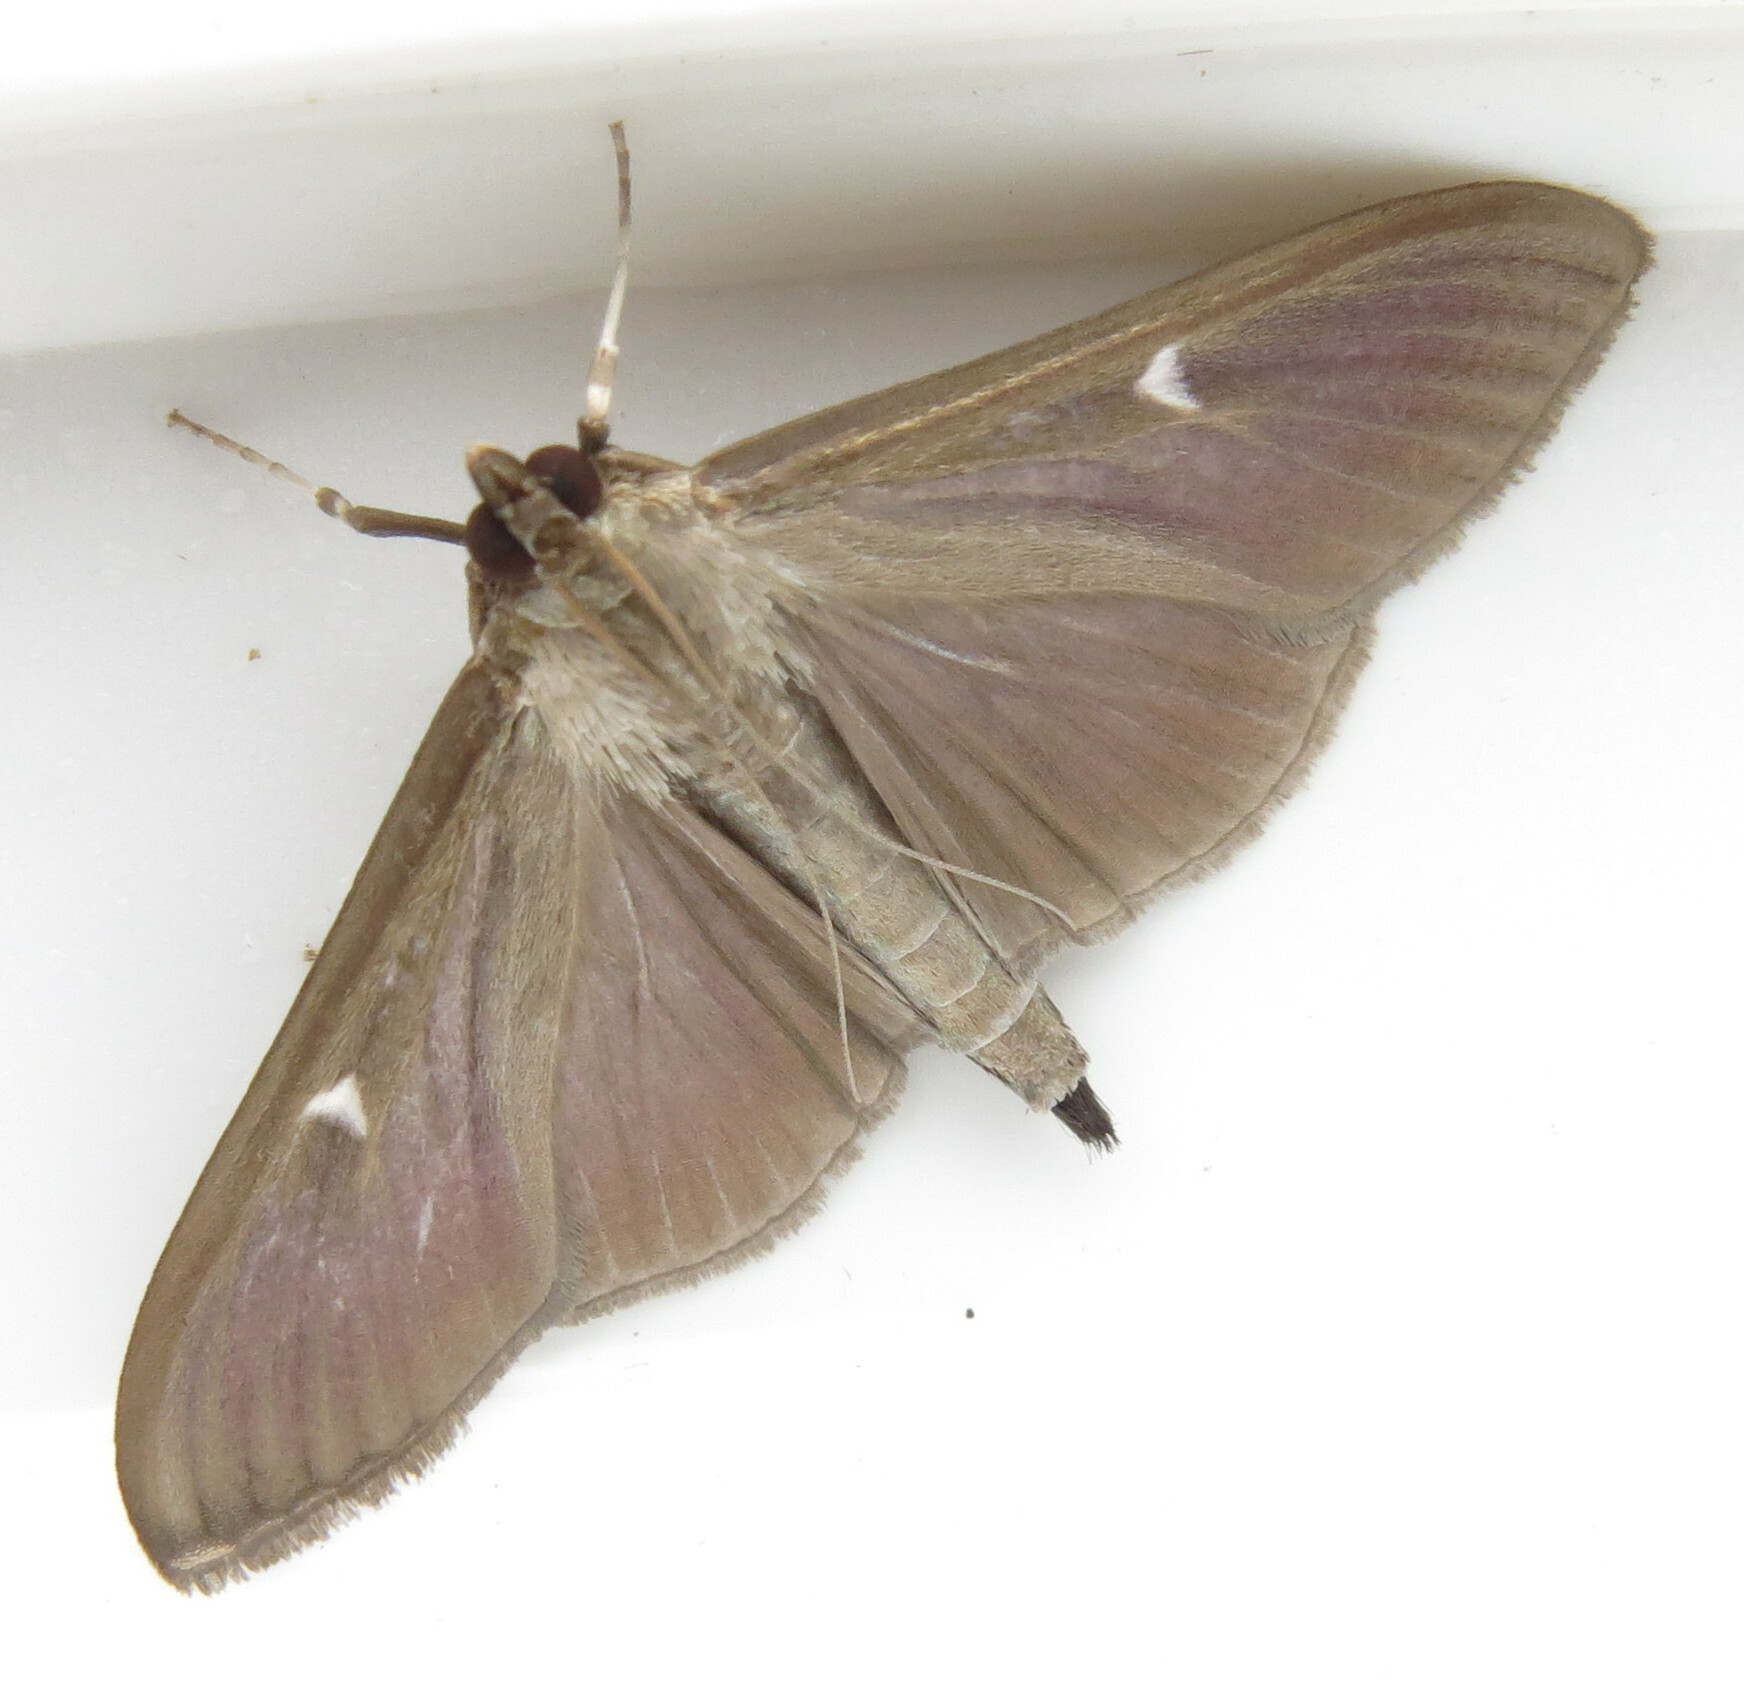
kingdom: Animalia
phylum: Arthropoda
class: Insecta
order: Lepidoptera
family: Crambidae
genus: Cydalima
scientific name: Cydalima perspectalis
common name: Box tree moth
